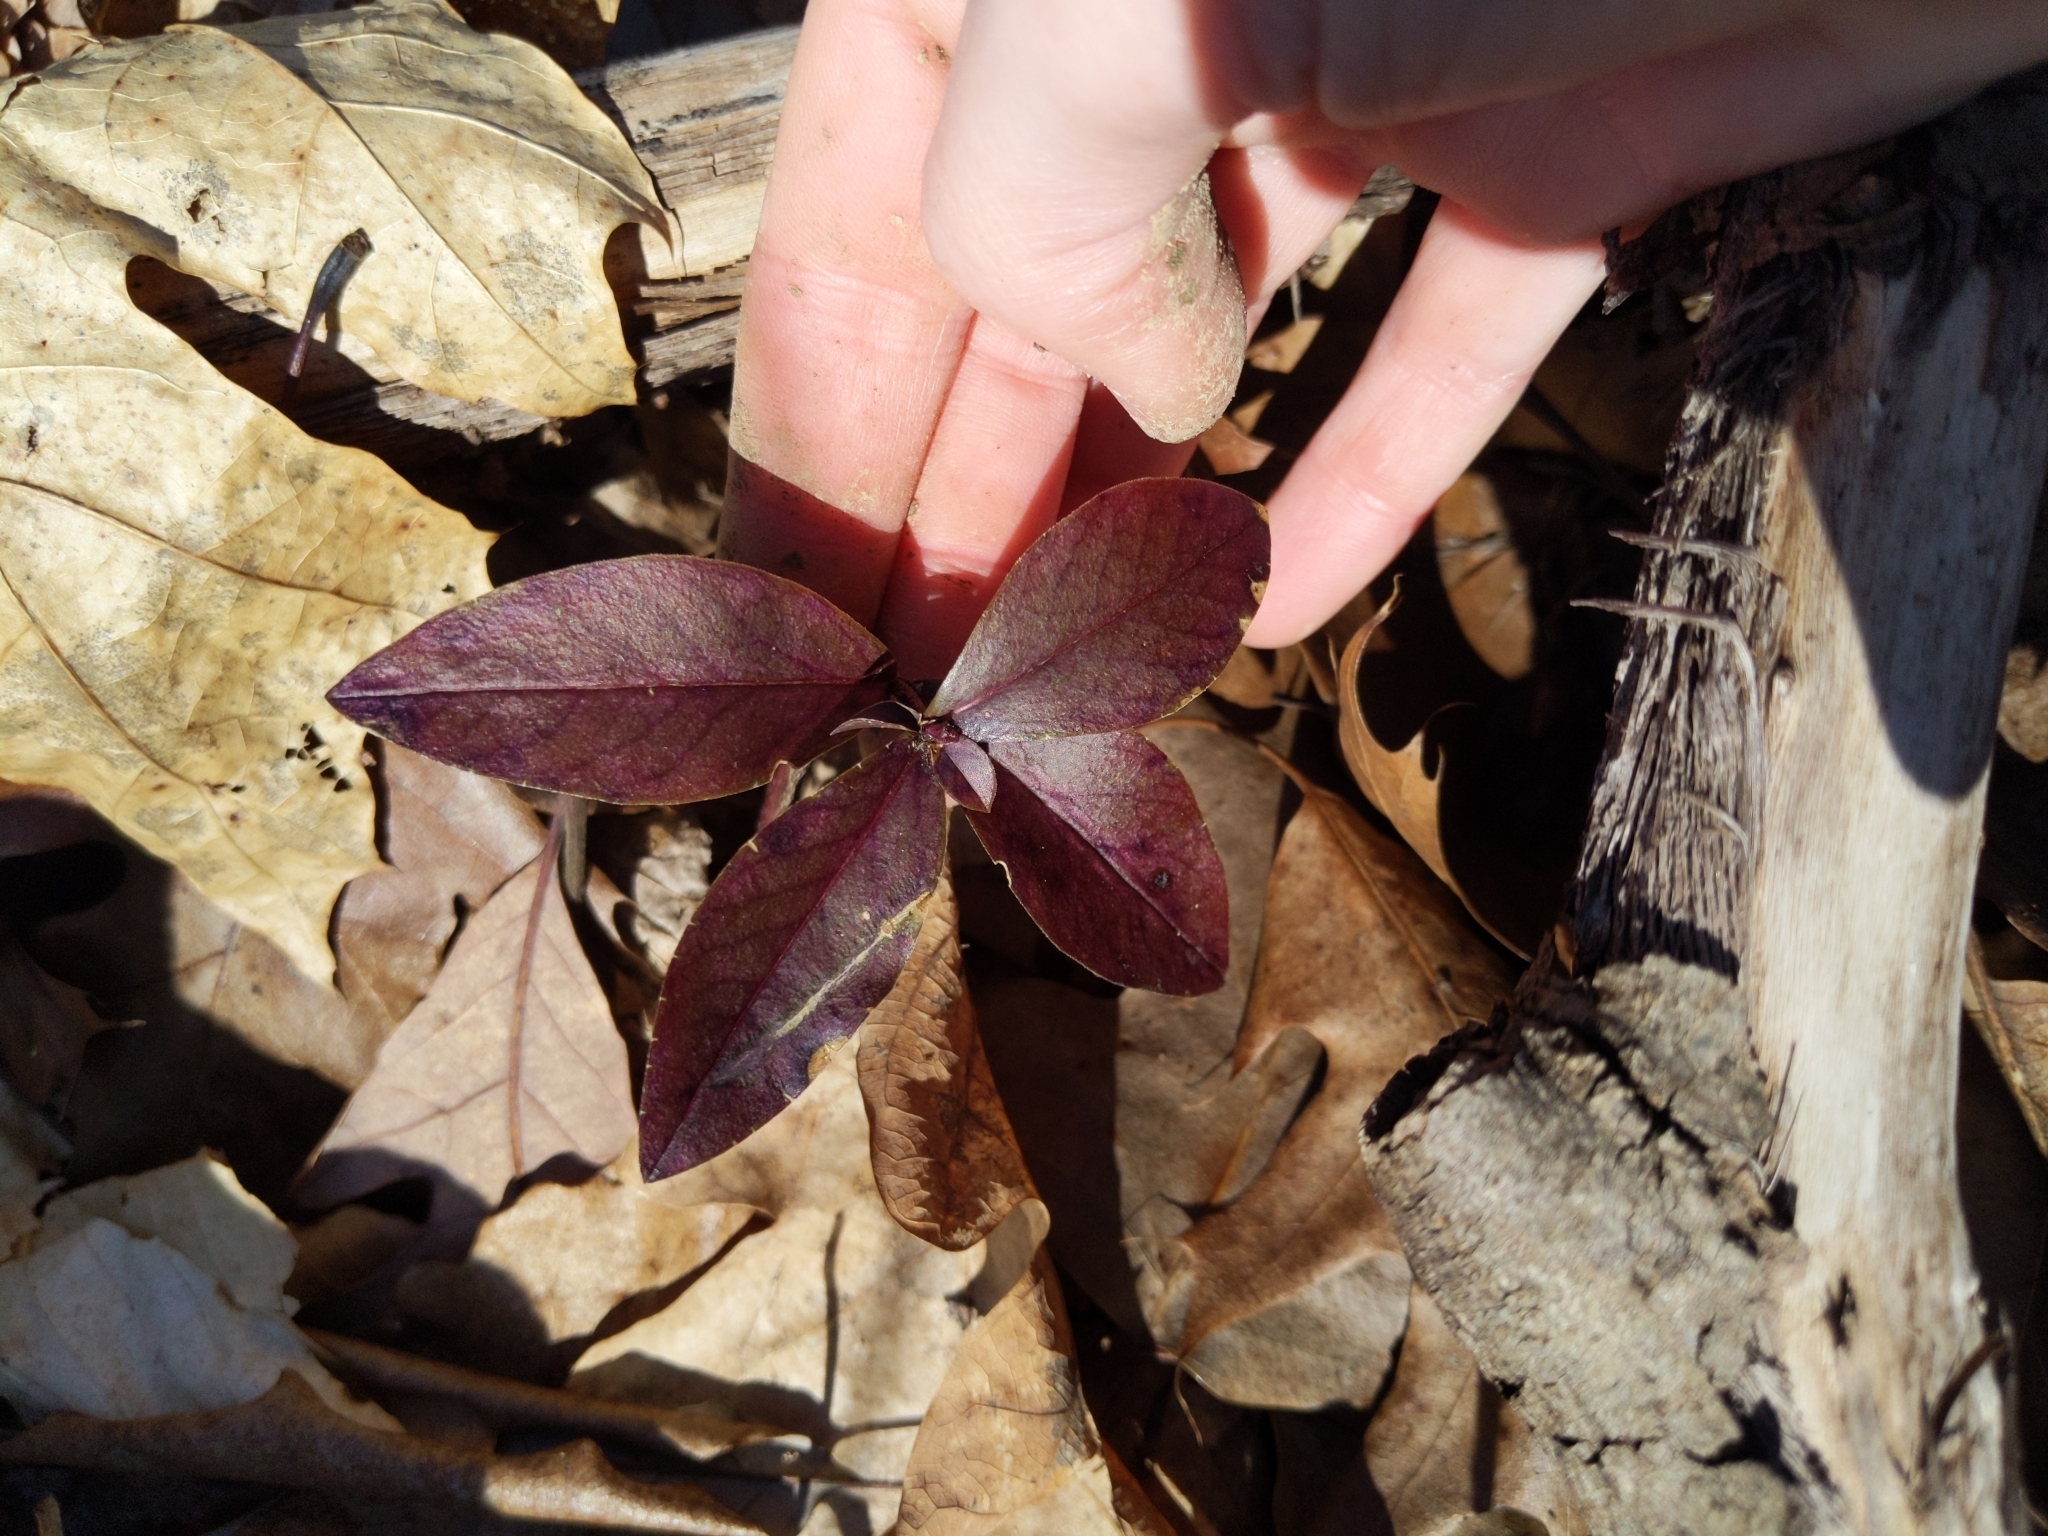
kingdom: Plantae
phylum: Tracheophyta
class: Magnoliopsida
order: Ericales
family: Polemoniaceae
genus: Phlox
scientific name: Phlox divaricata
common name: Blue phlox
